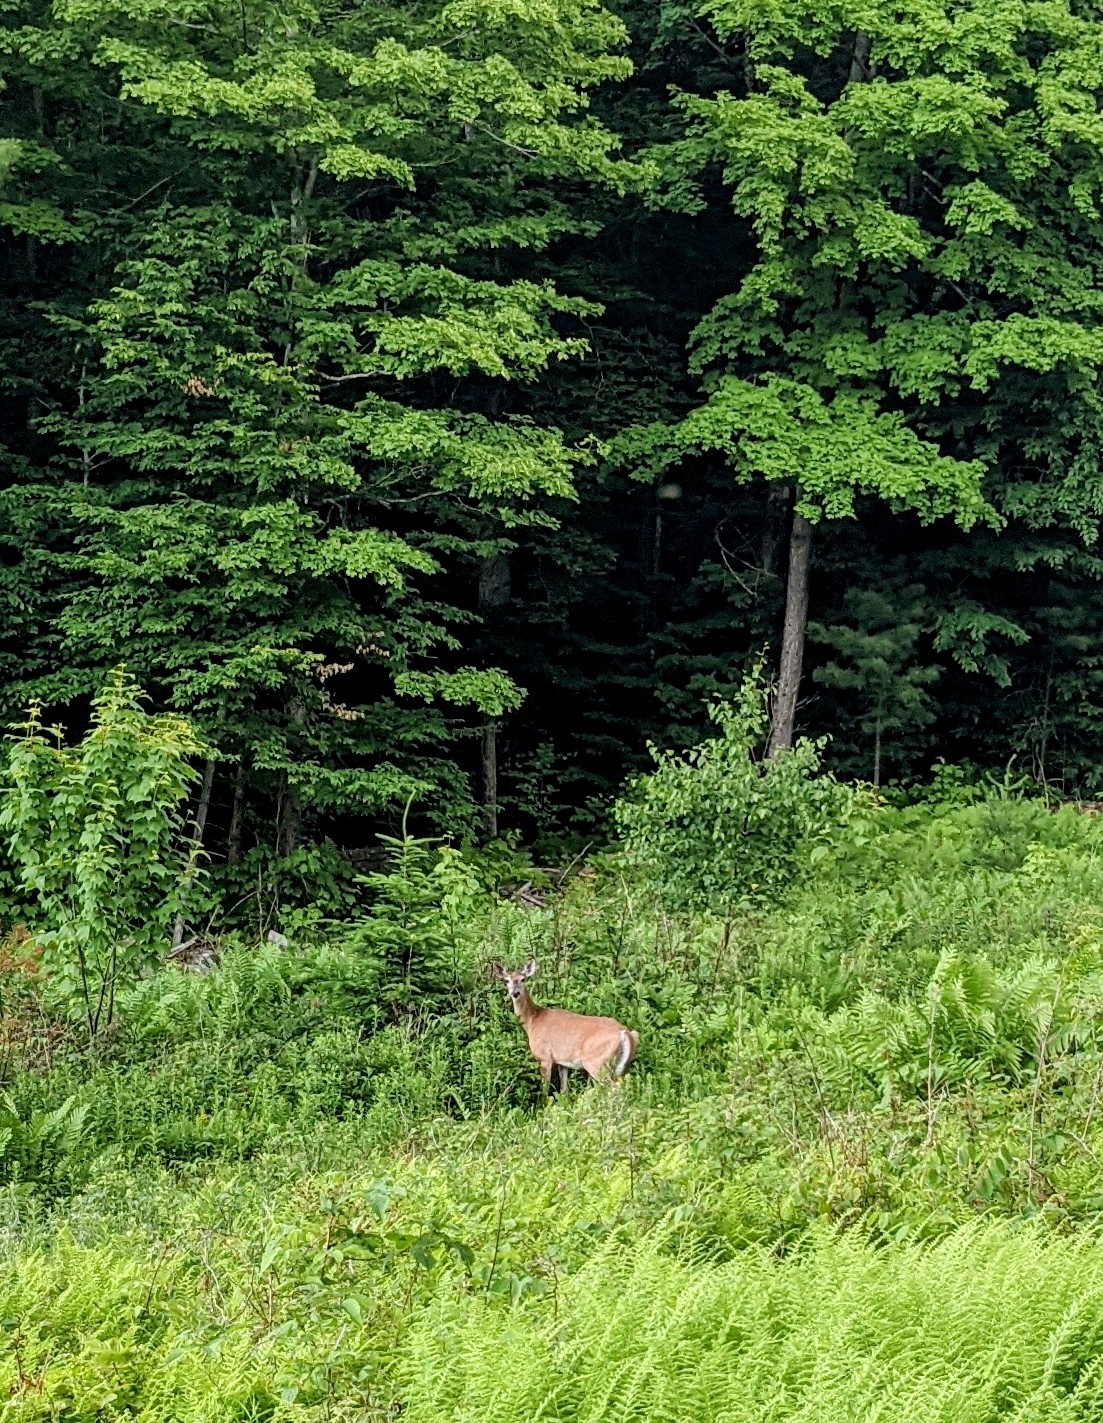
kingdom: Animalia
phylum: Chordata
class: Mammalia
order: Artiodactyla
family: Cervidae
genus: Odocoileus
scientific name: Odocoileus virginianus
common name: White-tailed deer
